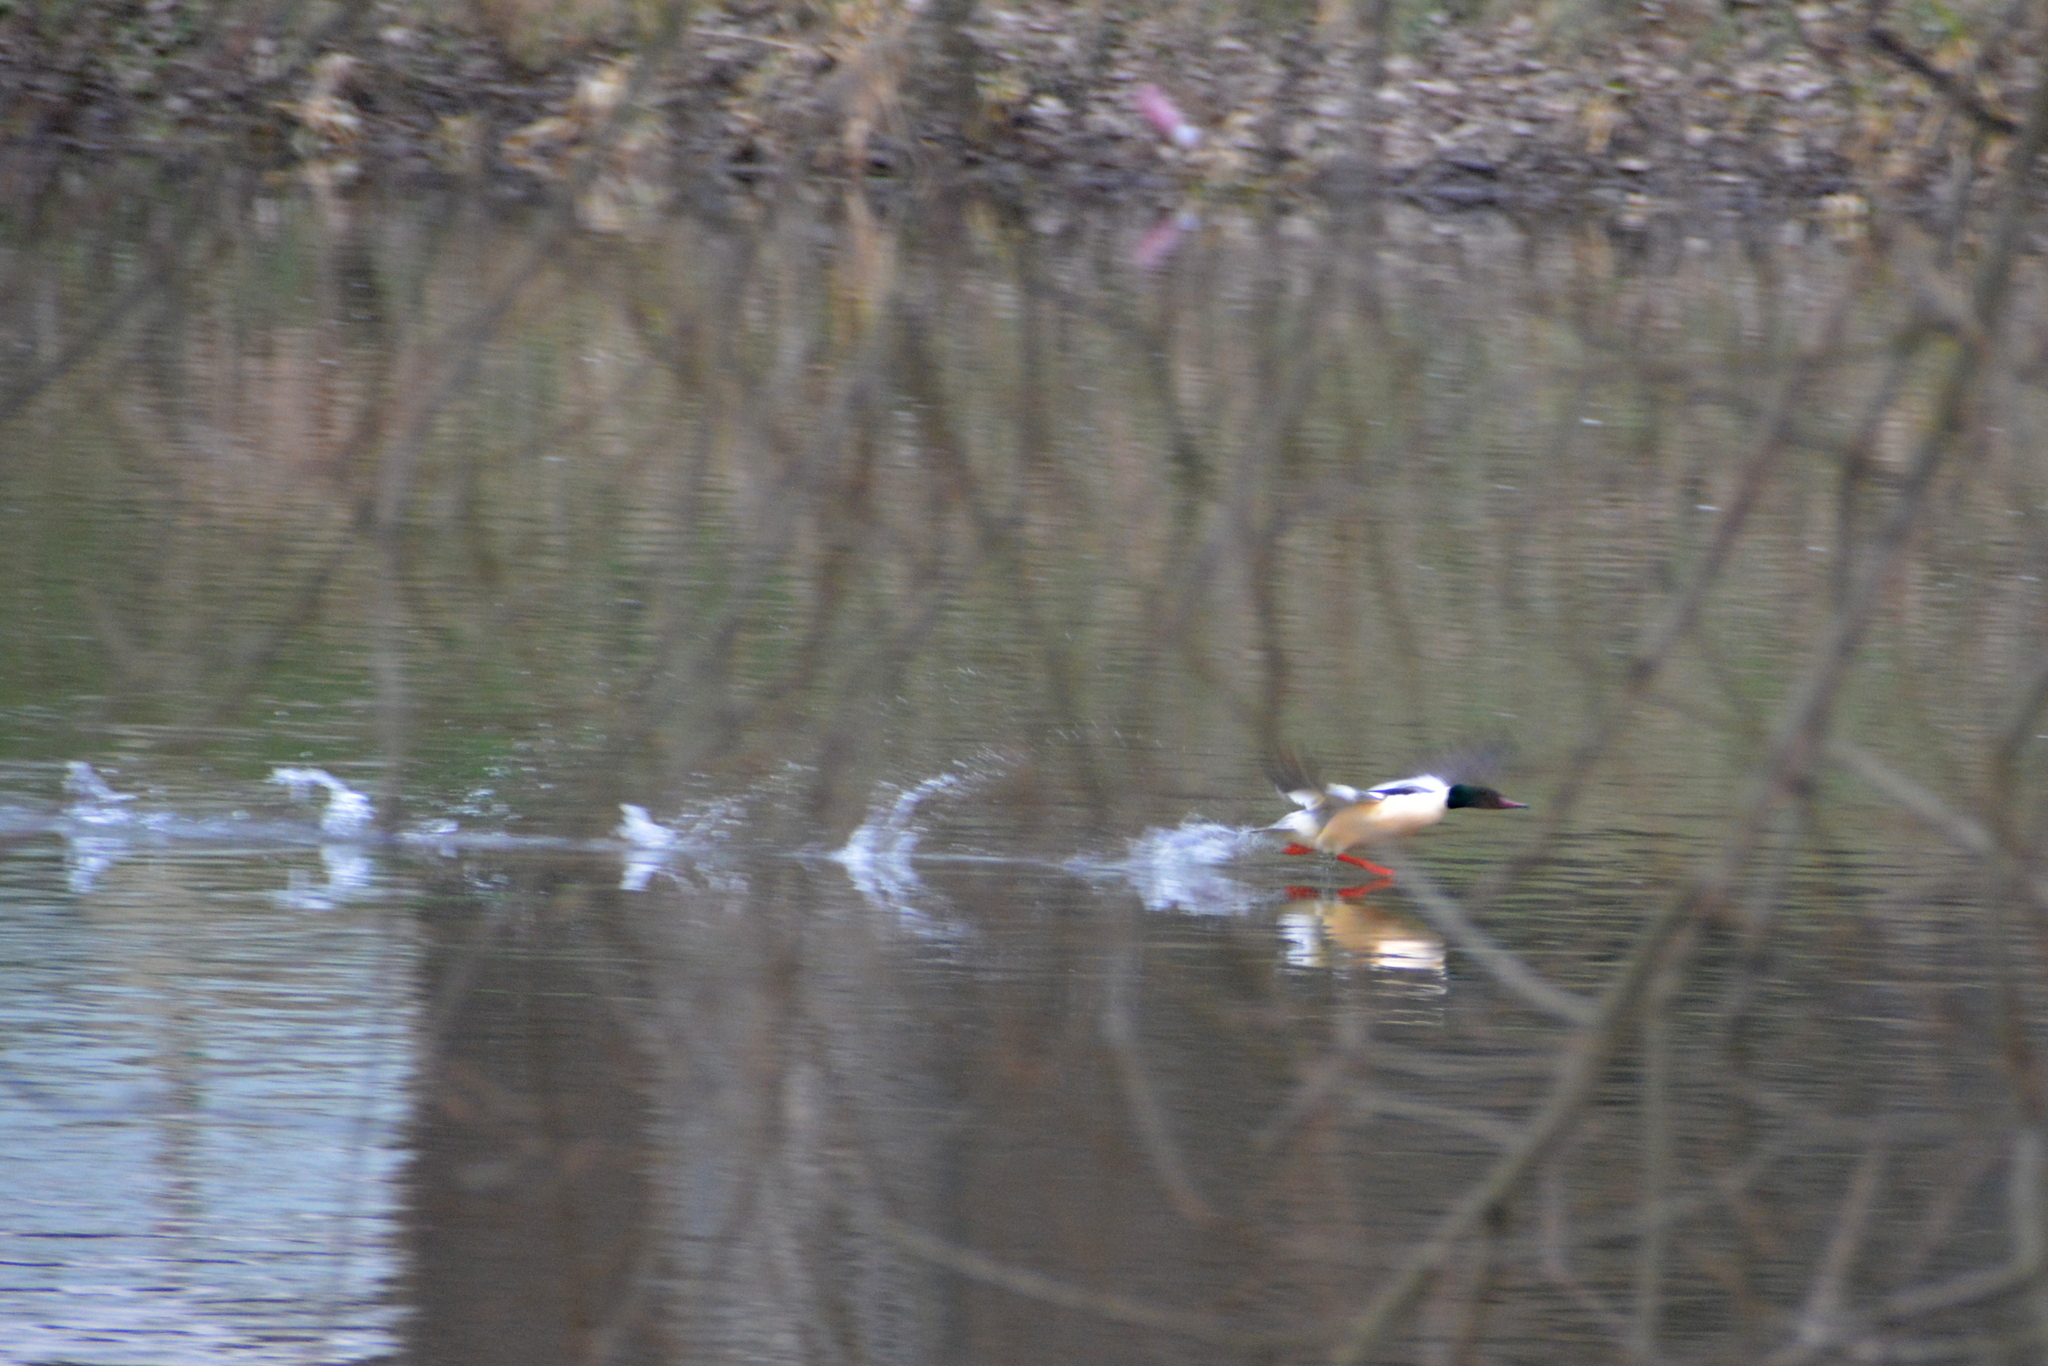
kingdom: Animalia
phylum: Chordata
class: Aves
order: Anseriformes
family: Anatidae
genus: Mergus
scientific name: Mergus merganser
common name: Common merganser
